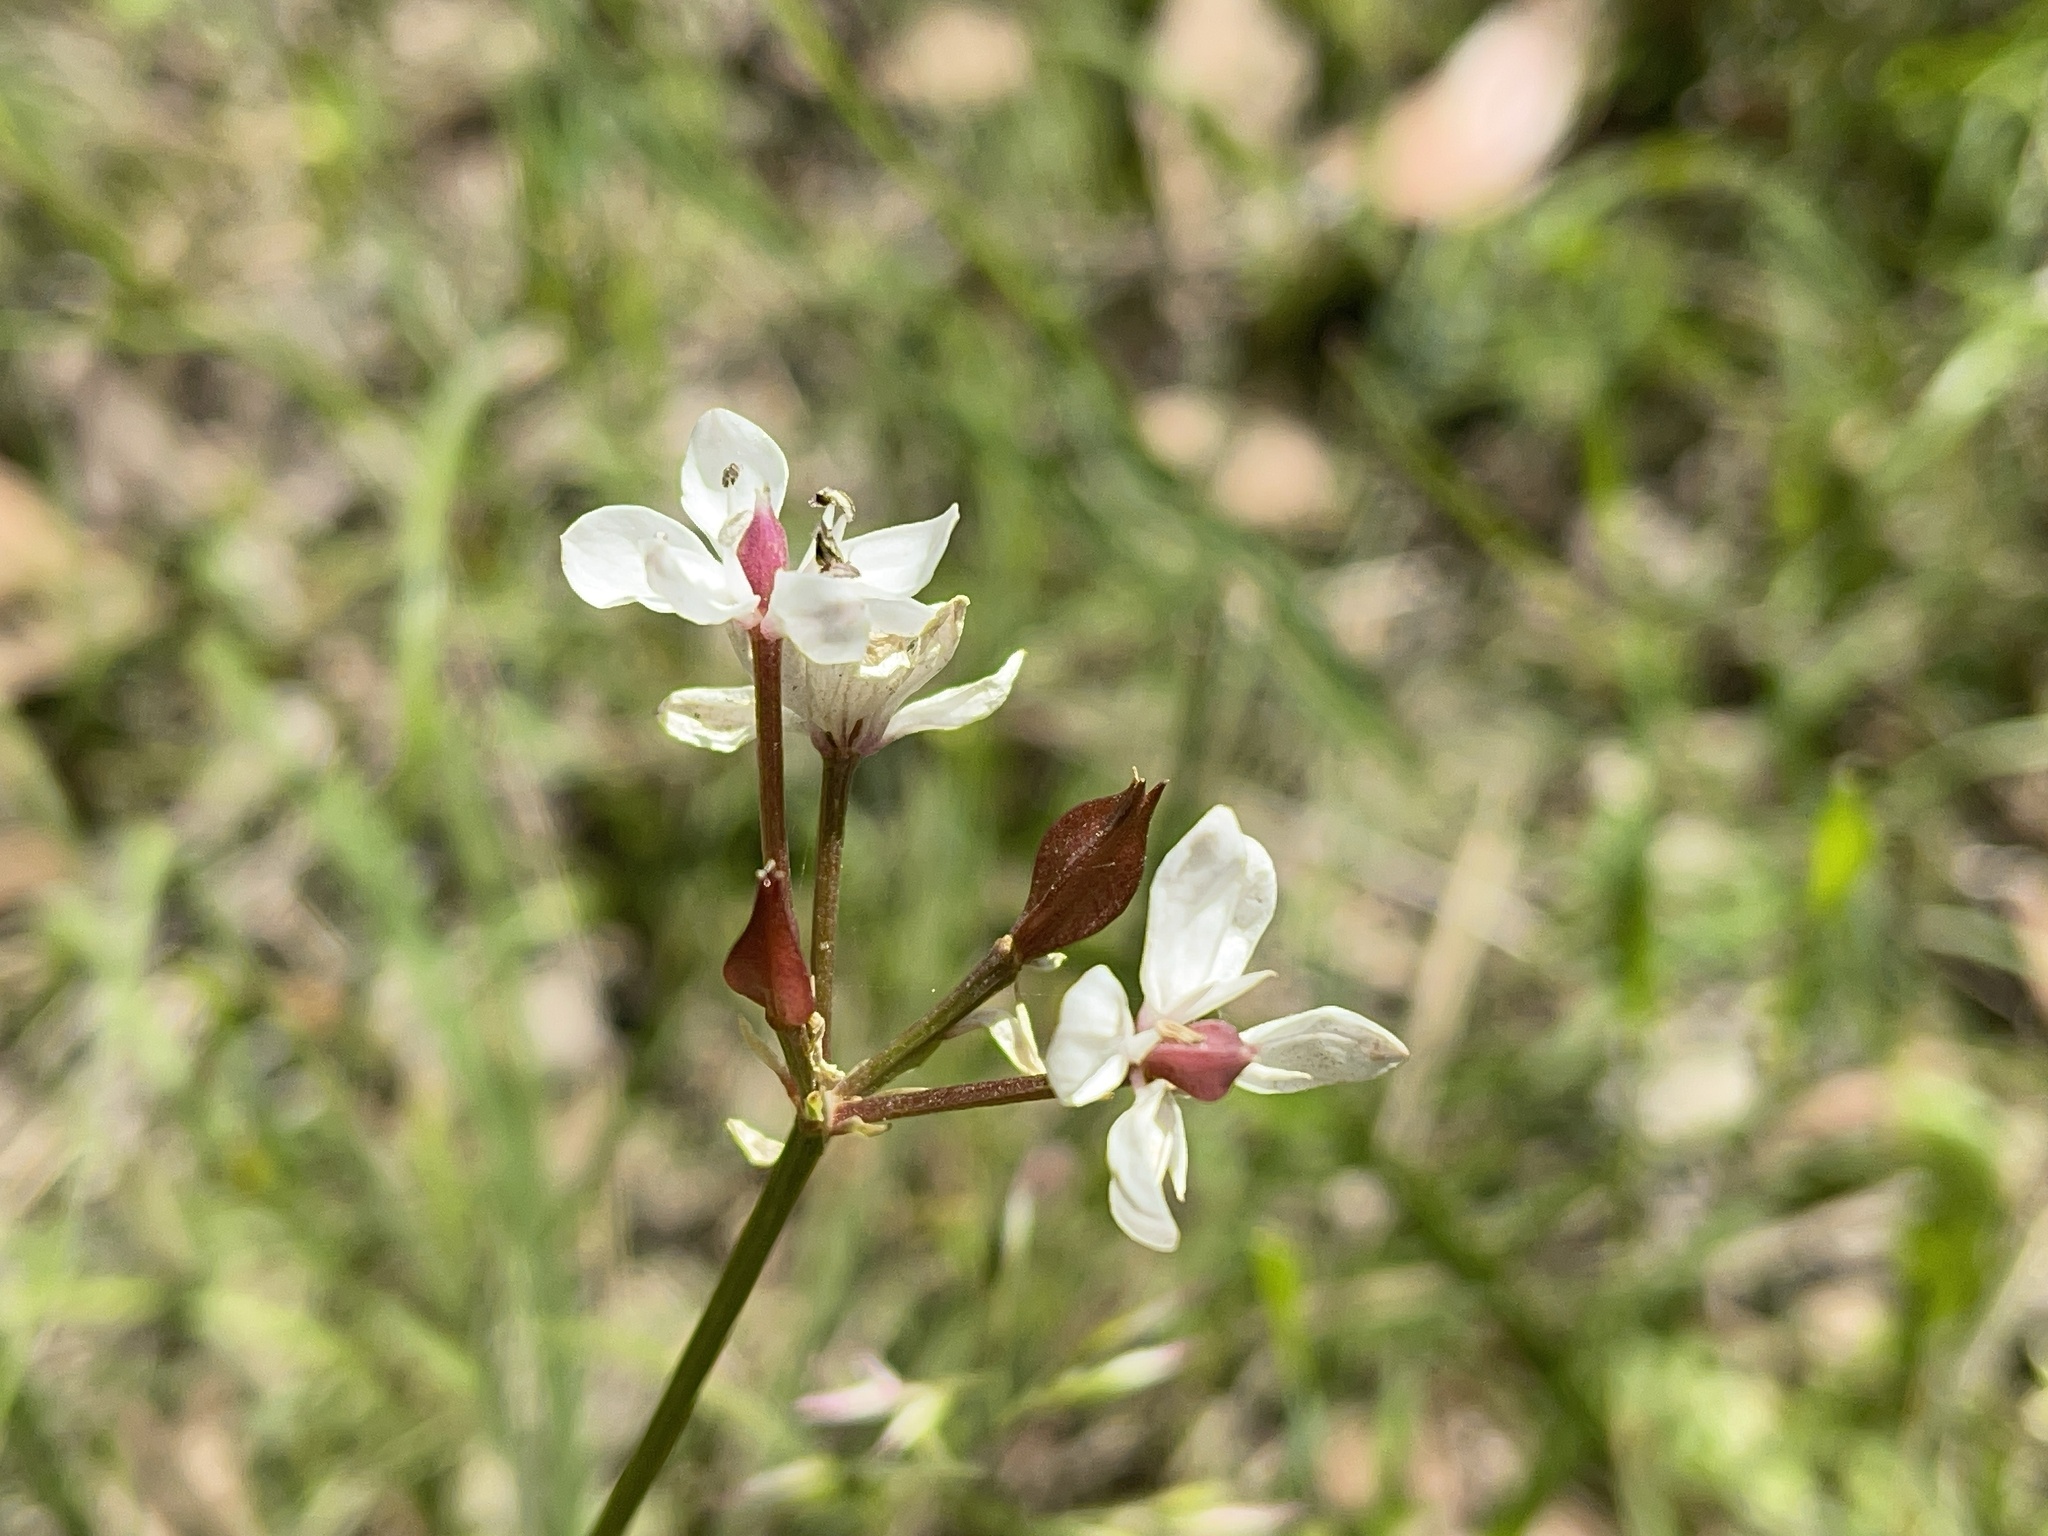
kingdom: Plantae
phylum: Tracheophyta
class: Liliopsida
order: Liliales
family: Colchicaceae
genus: Burchardia
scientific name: Burchardia umbellata
